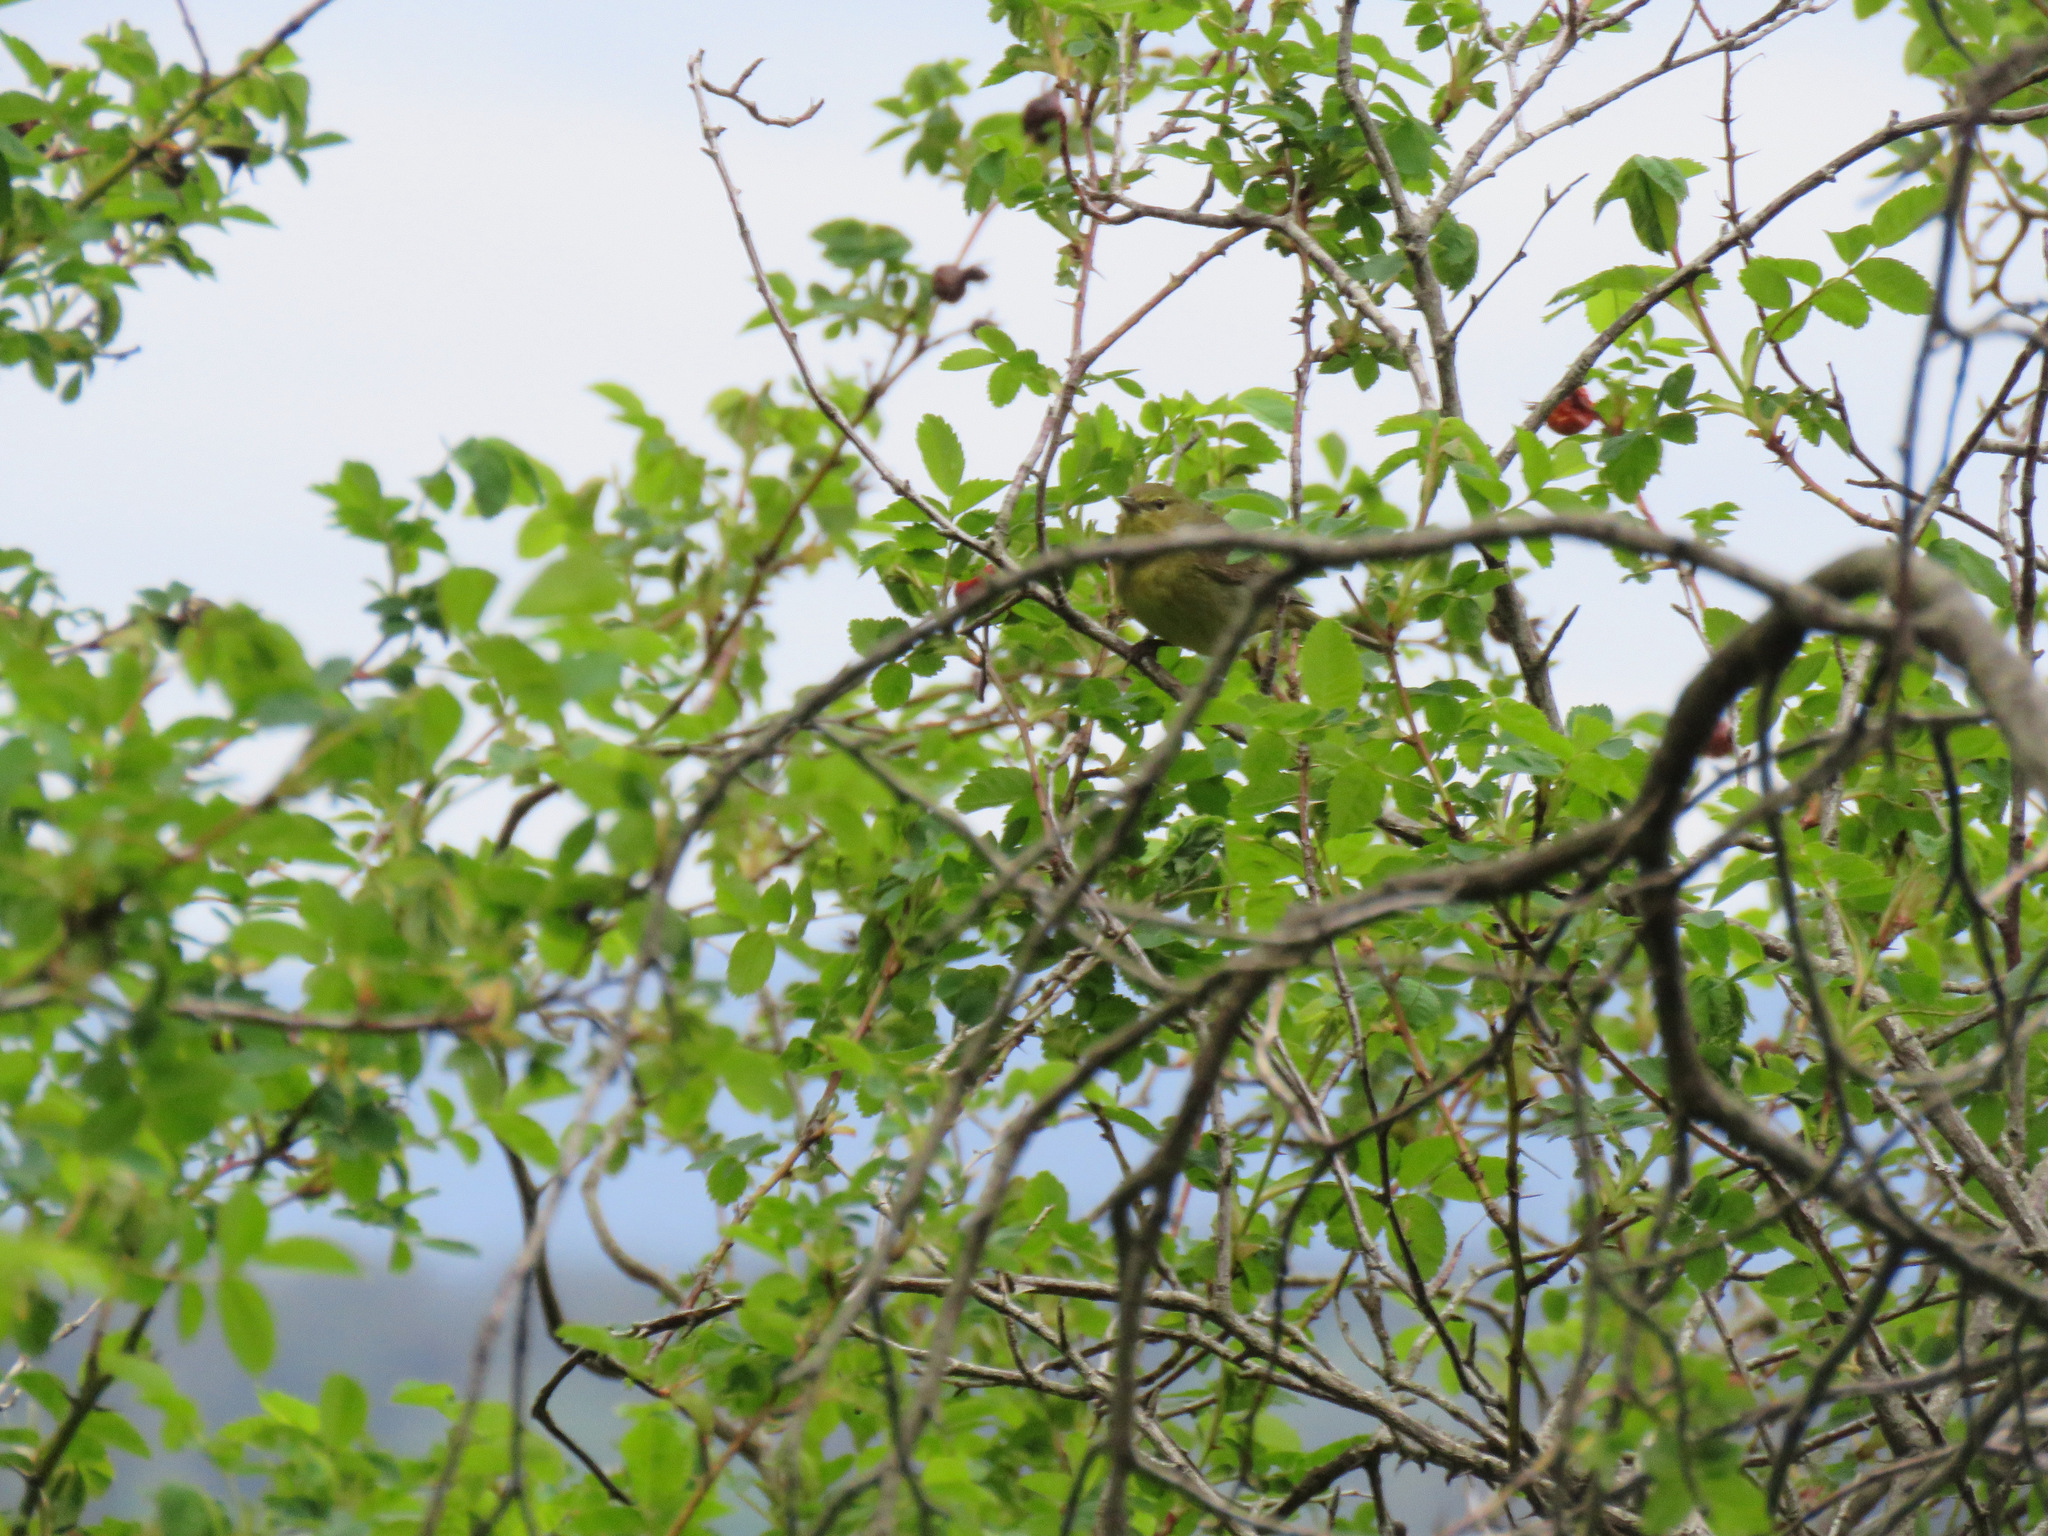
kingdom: Animalia
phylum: Chordata
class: Aves
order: Passeriformes
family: Parulidae
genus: Leiothlypis
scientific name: Leiothlypis celata
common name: Orange-crowned warbler
